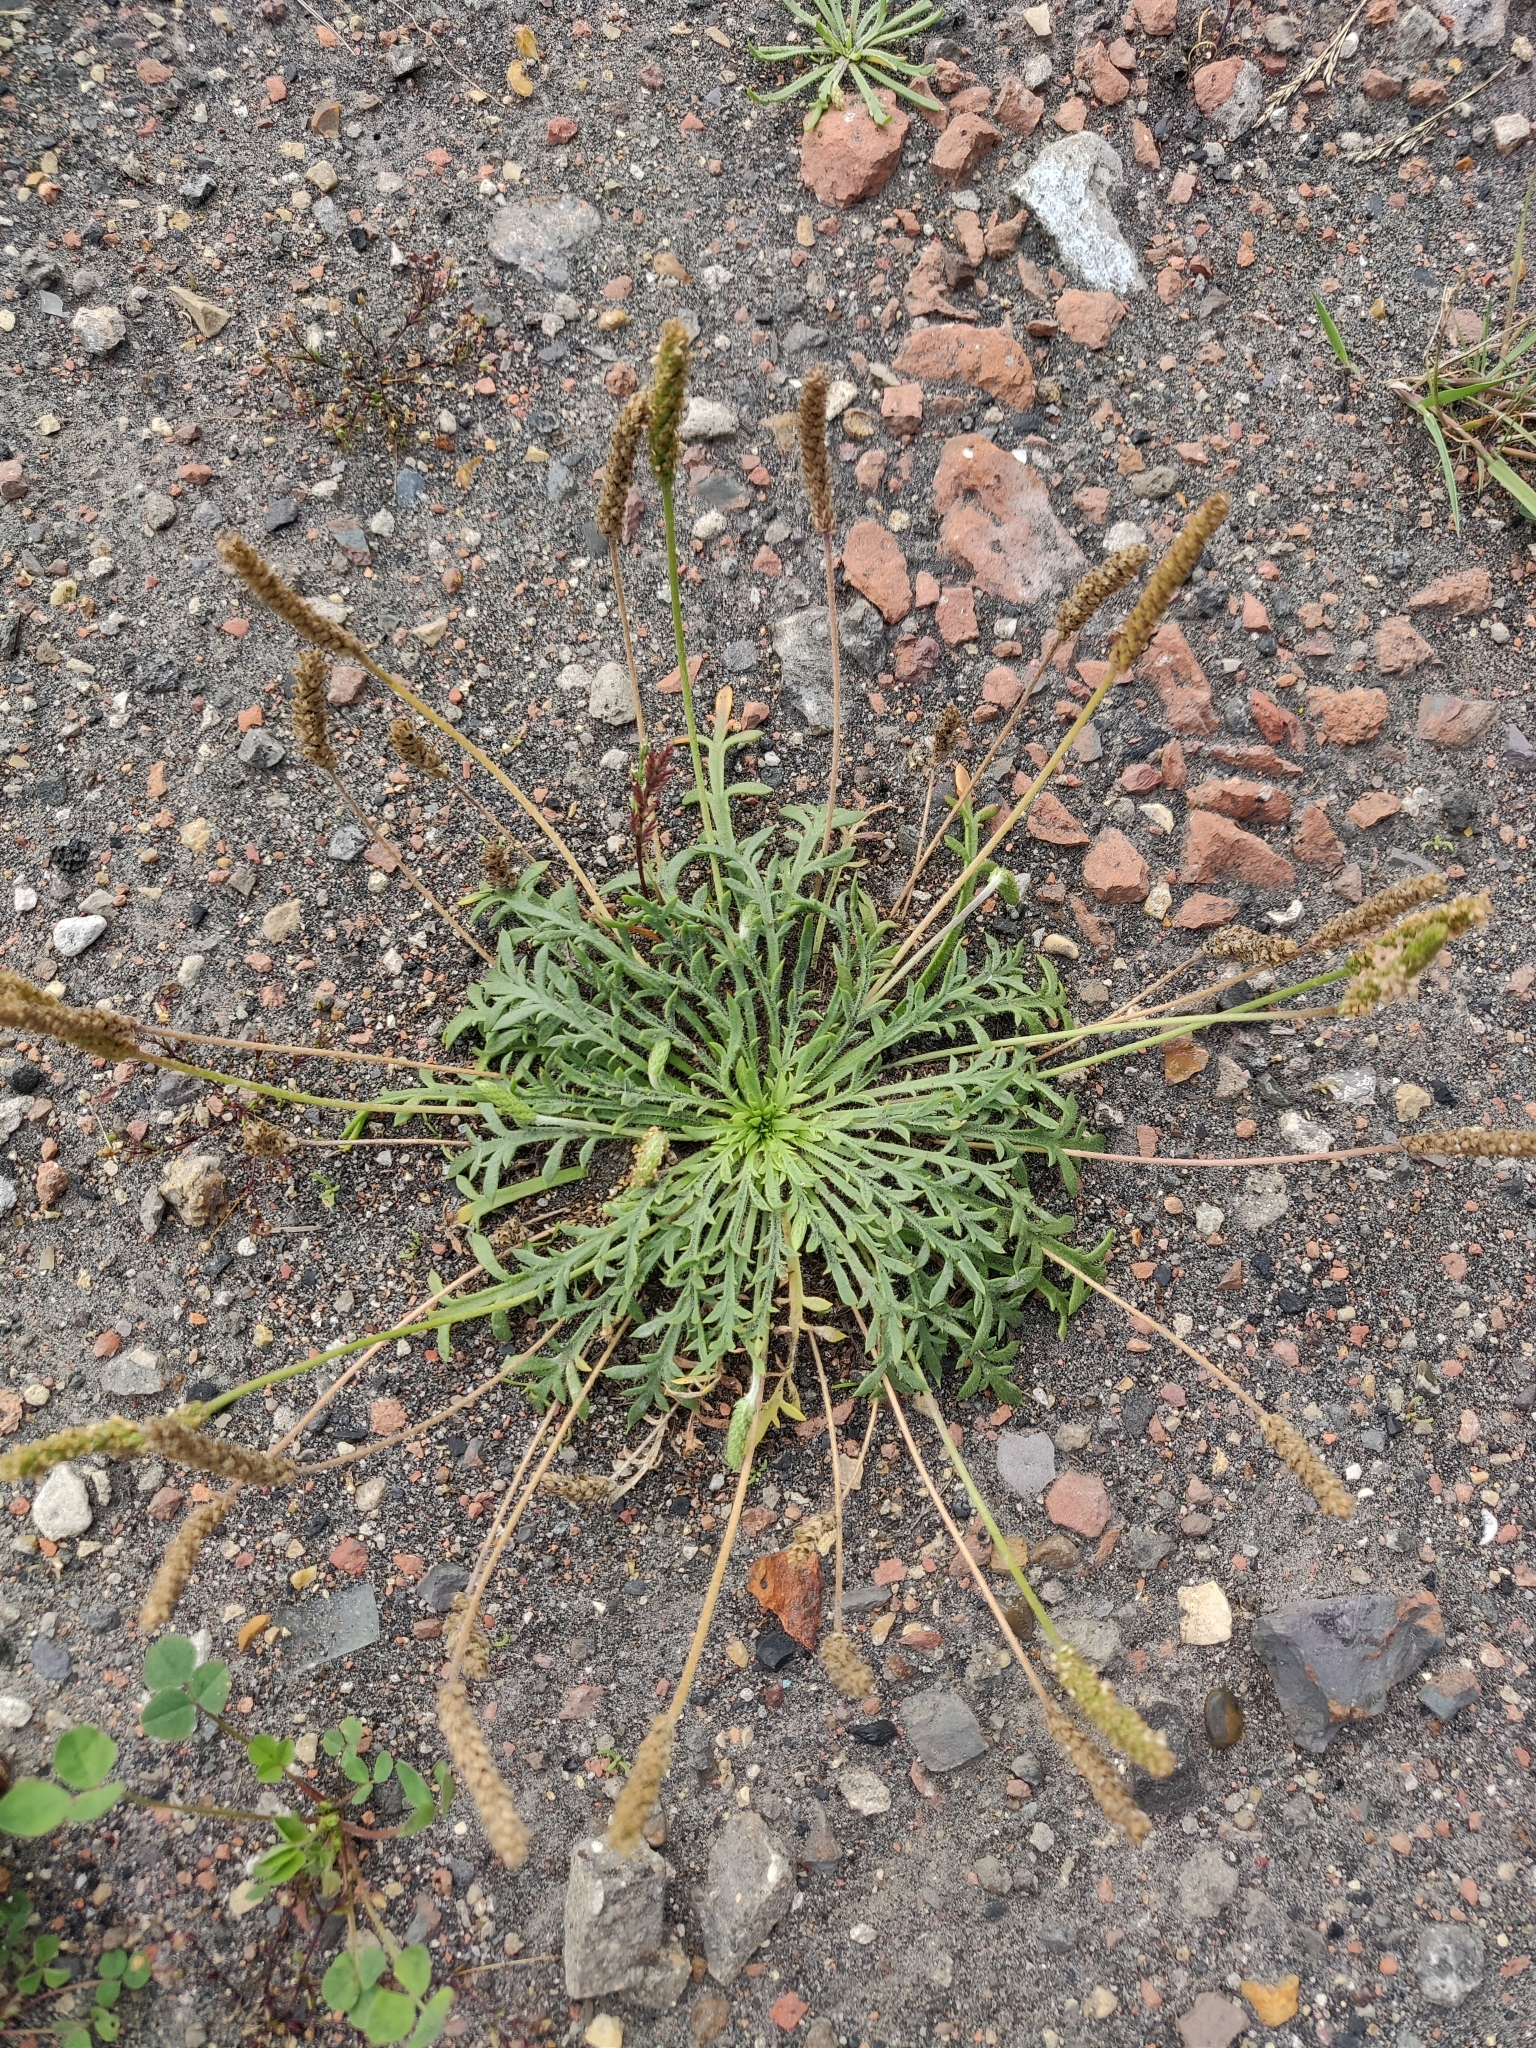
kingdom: Plantae
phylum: Tracheophyta
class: Magnoliopsida
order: Lamiales
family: Plantaginaceae
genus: Plantago
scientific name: Plantago coronopus
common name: Buck's-horn plantain
